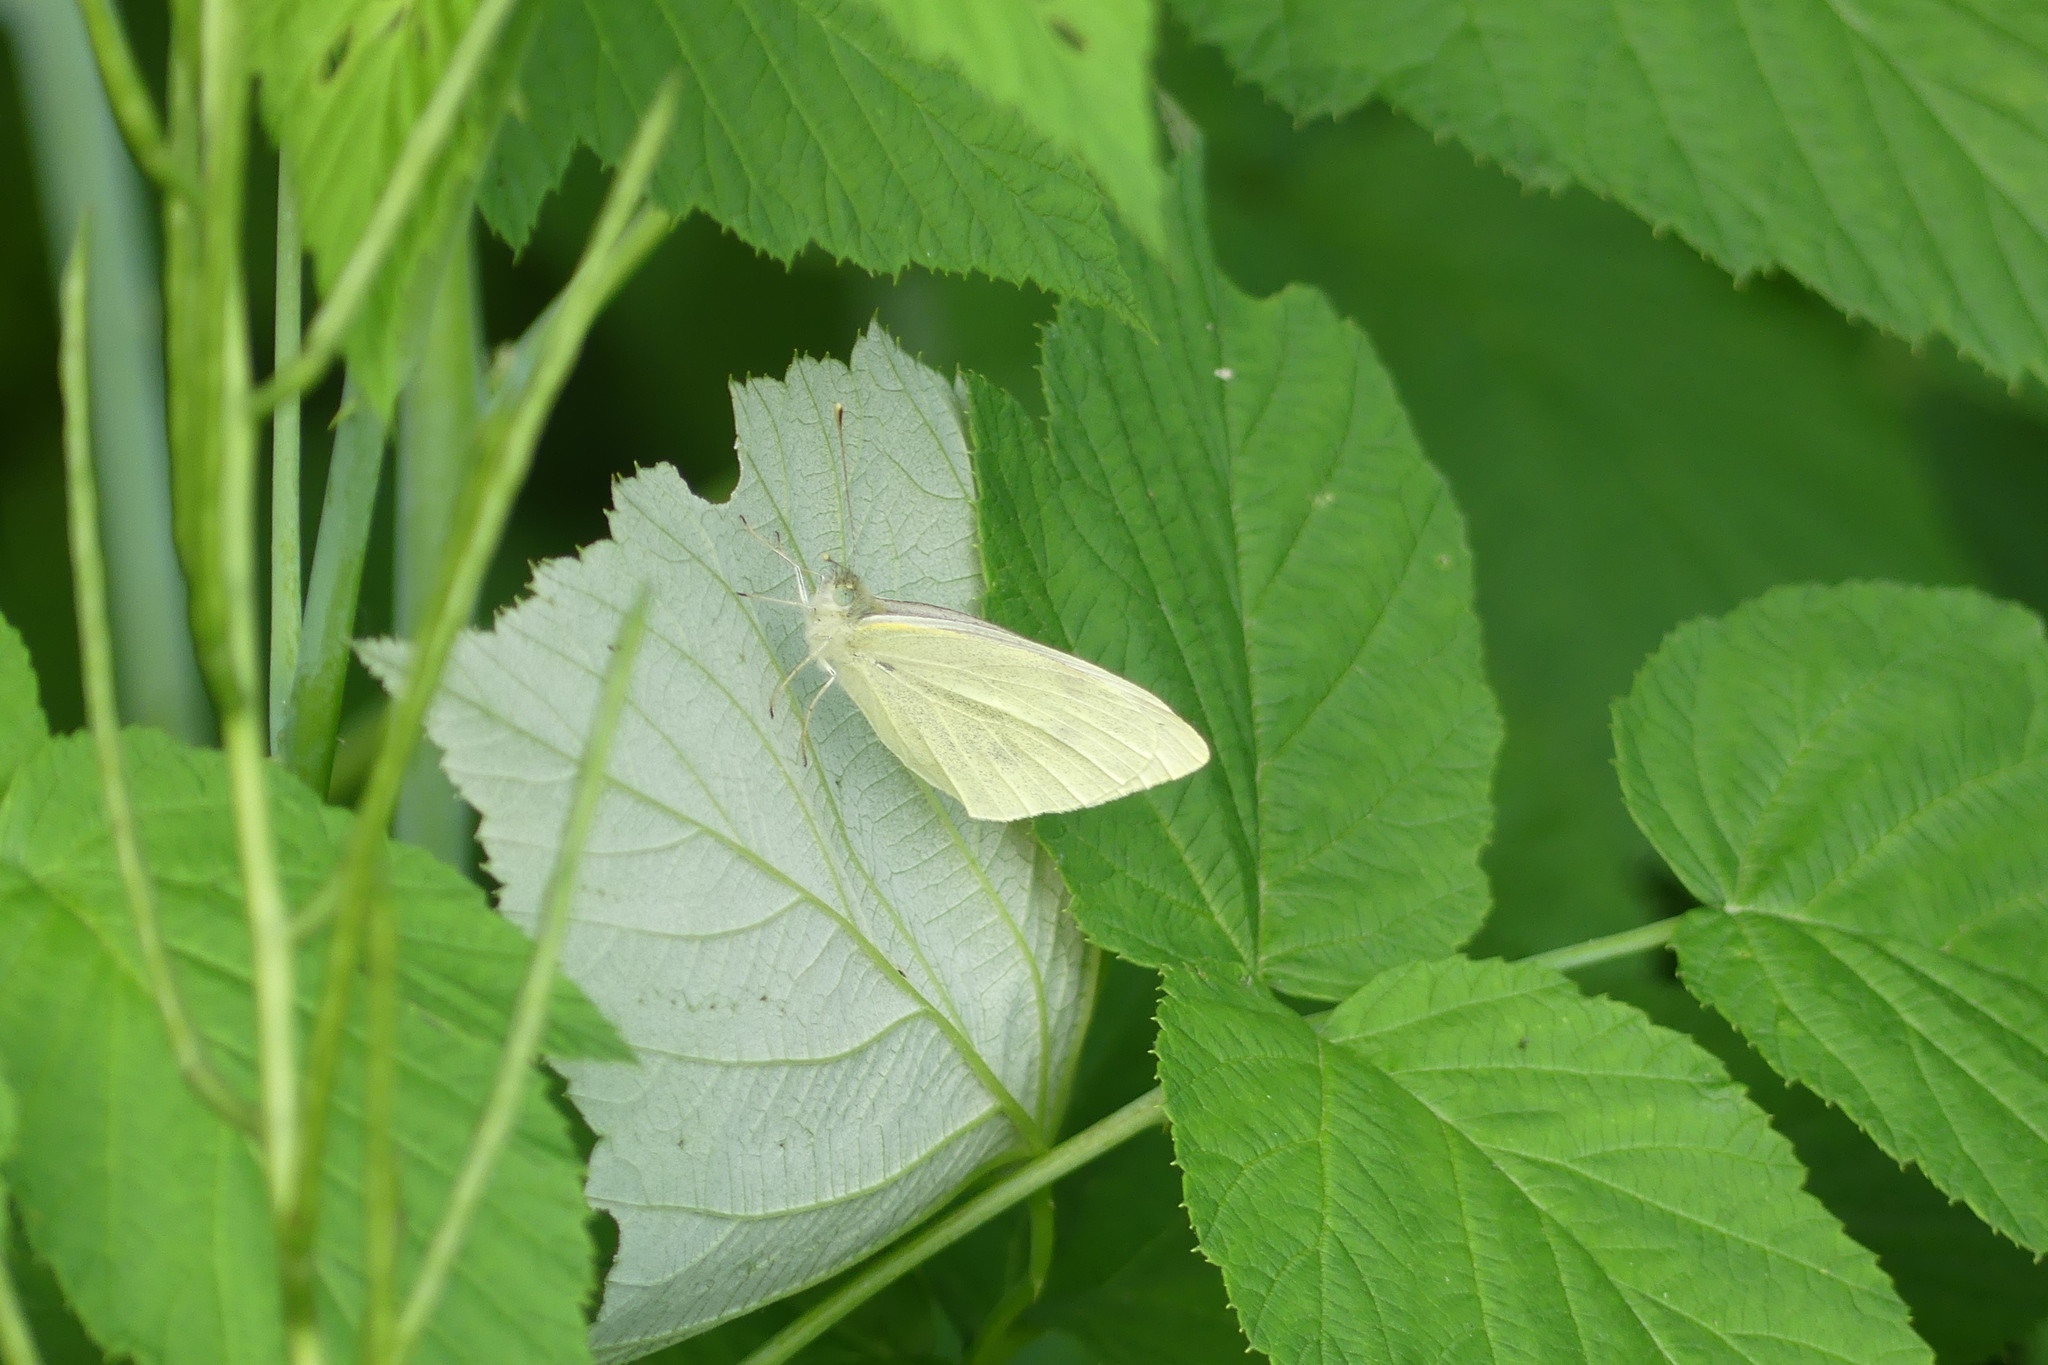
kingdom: Animalia
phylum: Arthropoda
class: Insecta
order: Lepidoptera
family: Pieridae
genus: Pieris
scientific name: Pieris rapae
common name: Small white
